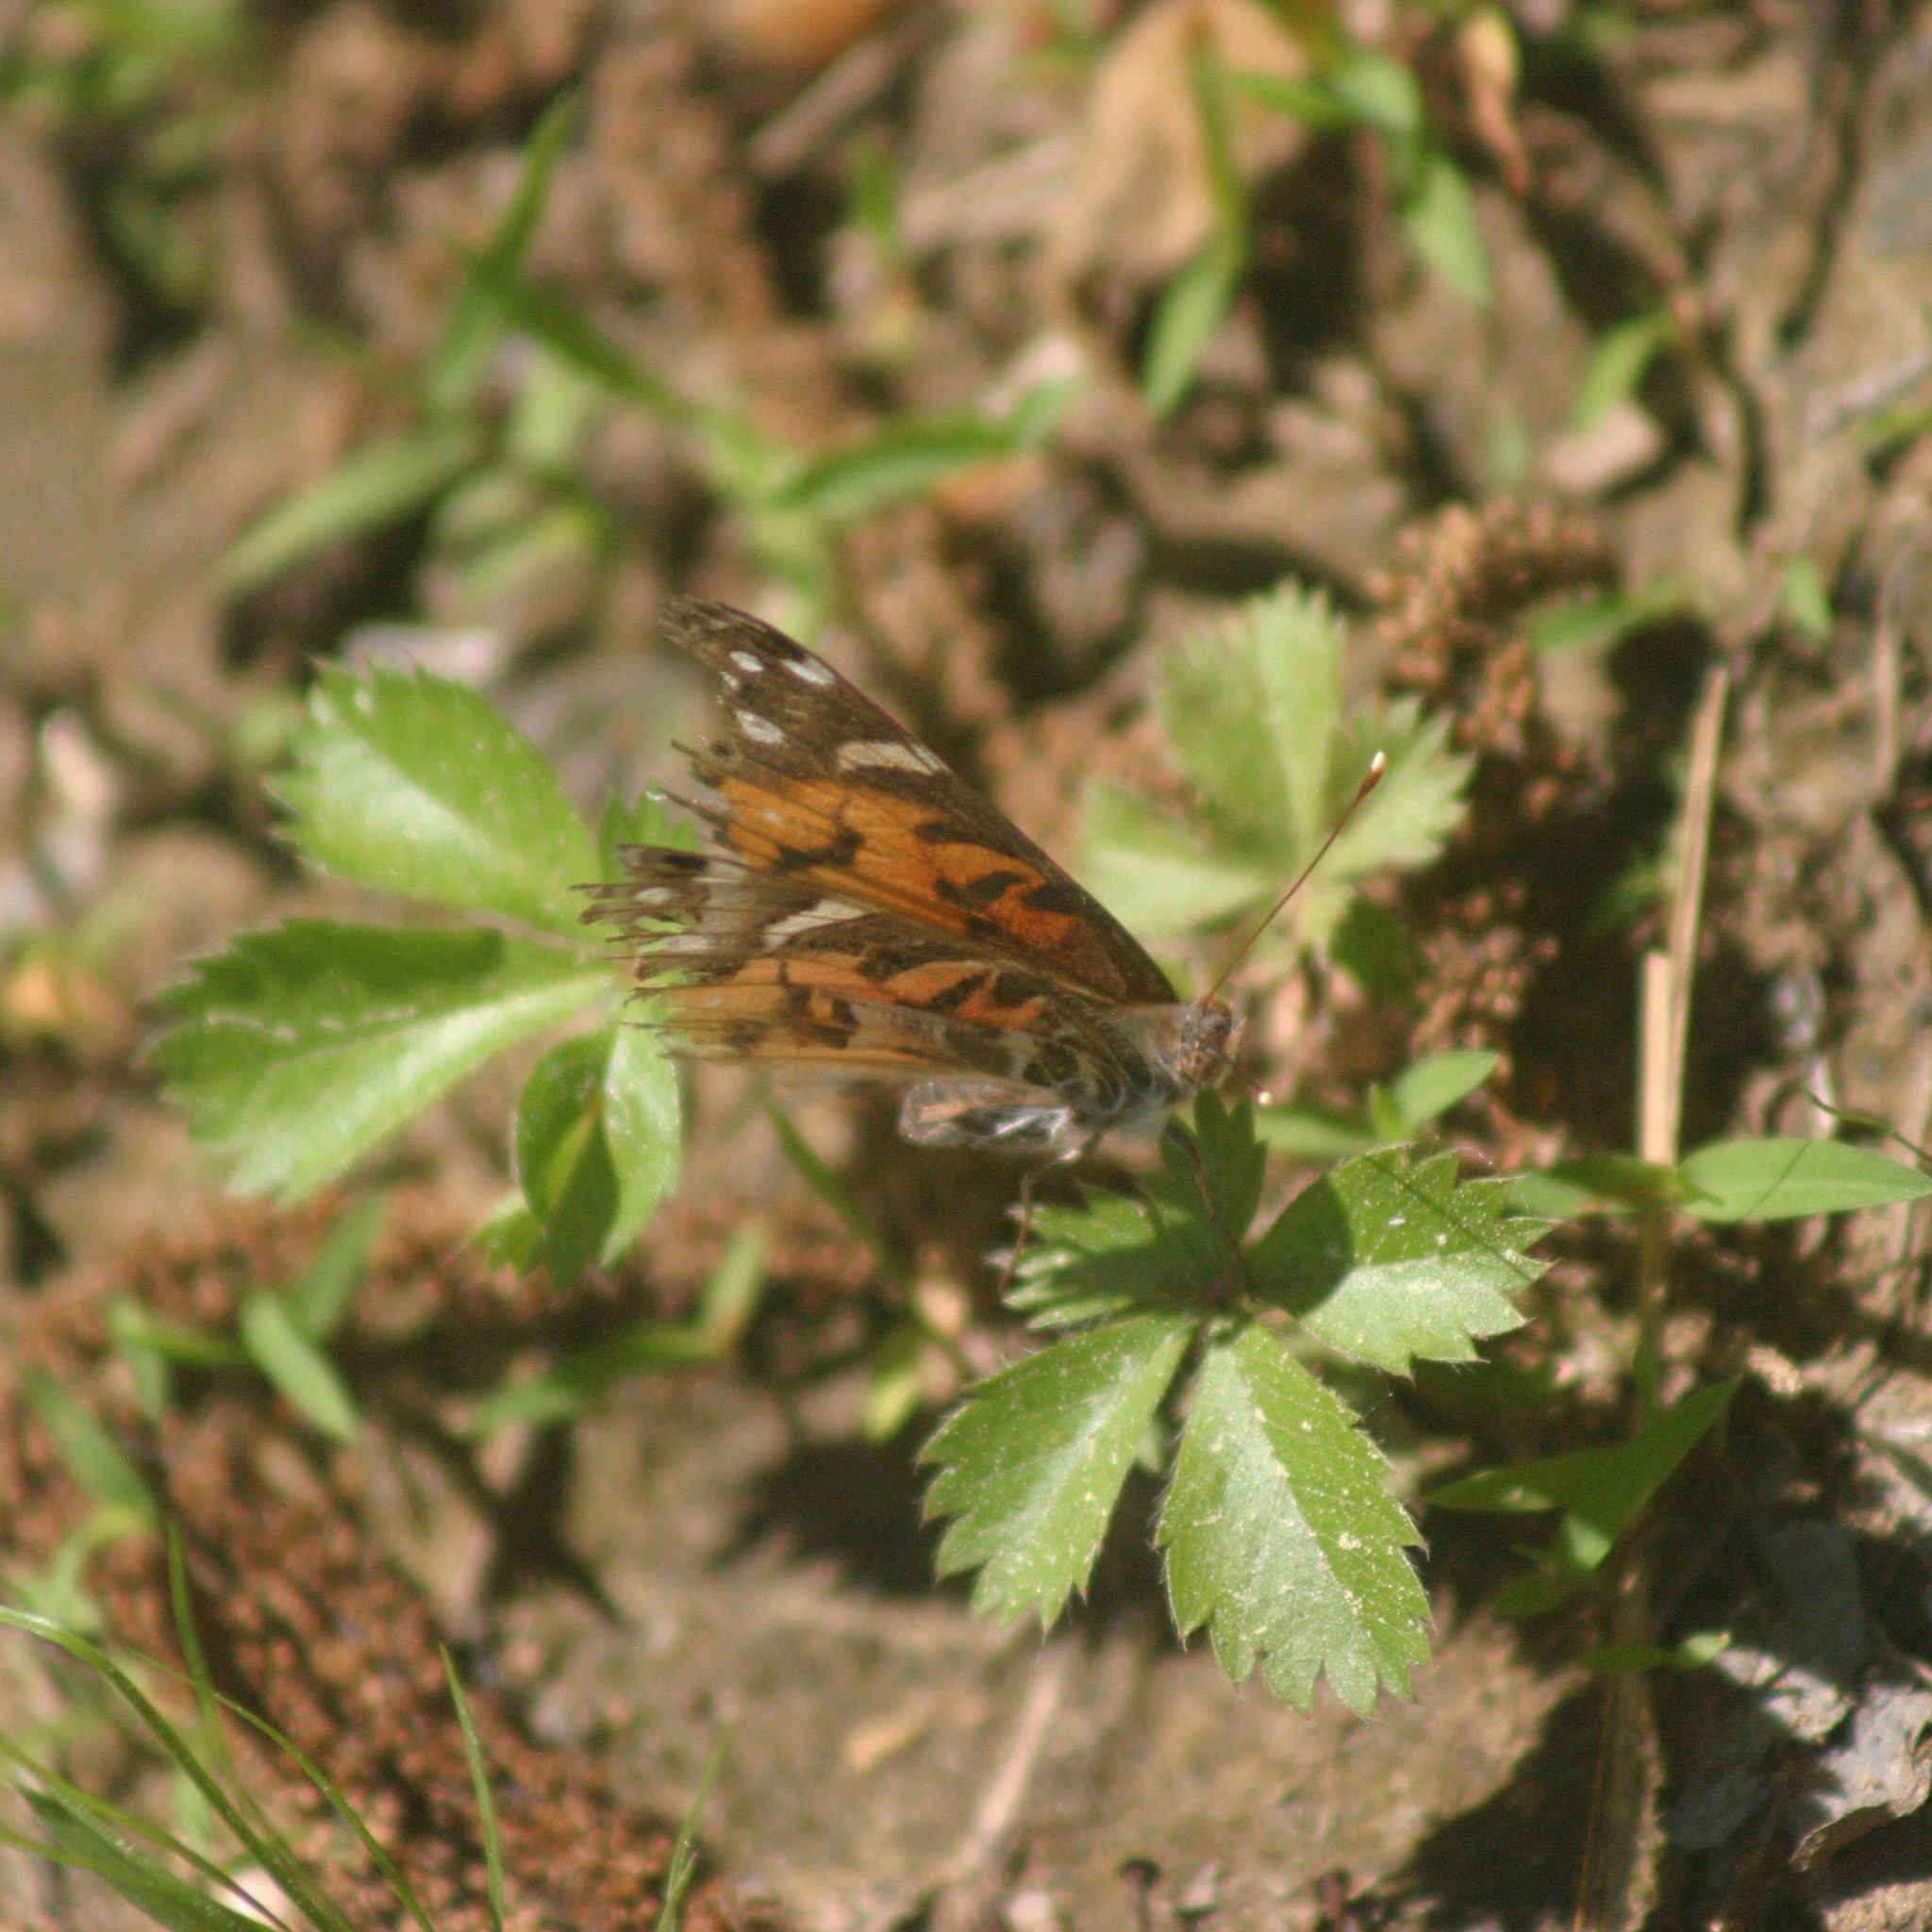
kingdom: Animalia
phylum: Arthropoda
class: Insecta
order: Lepidoptera
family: Nymphalidae
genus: Vanessa
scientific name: Vanessa virginiensis
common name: American lady
